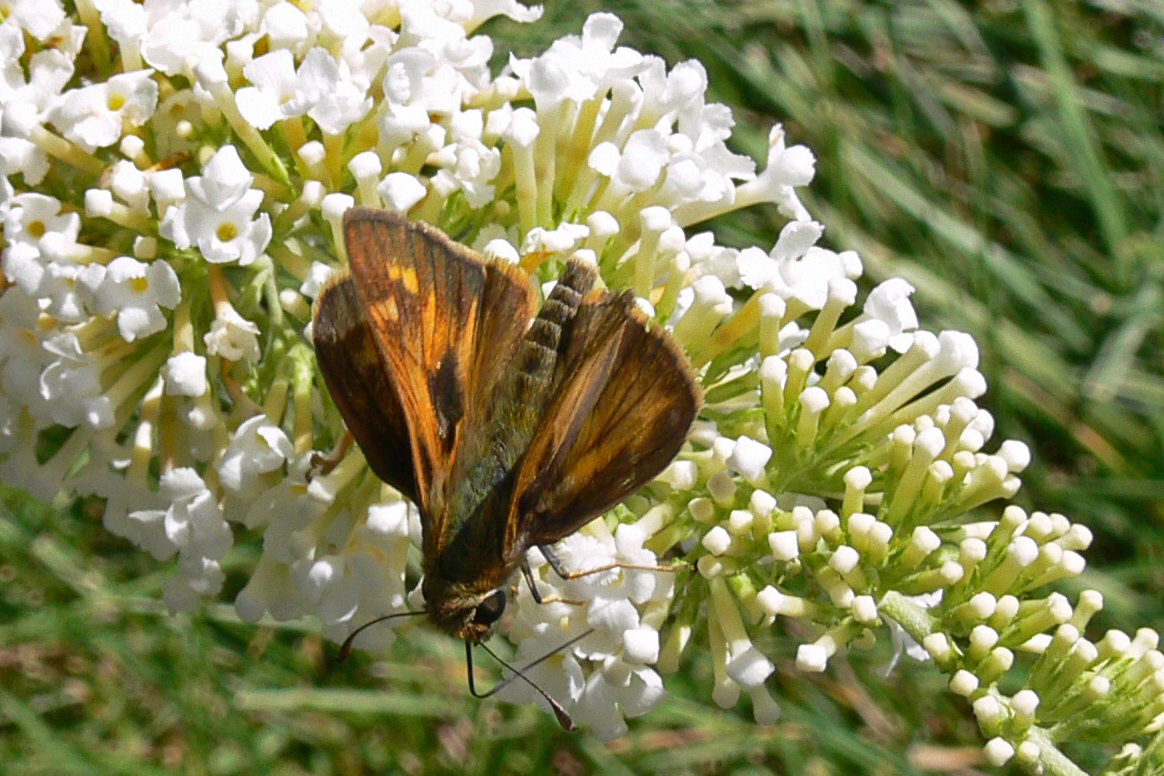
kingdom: Animalia
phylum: Arthropoda
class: Insecta
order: Lepidoptera
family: Hesperiidae
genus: Atalopedes
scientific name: Atalopedes
